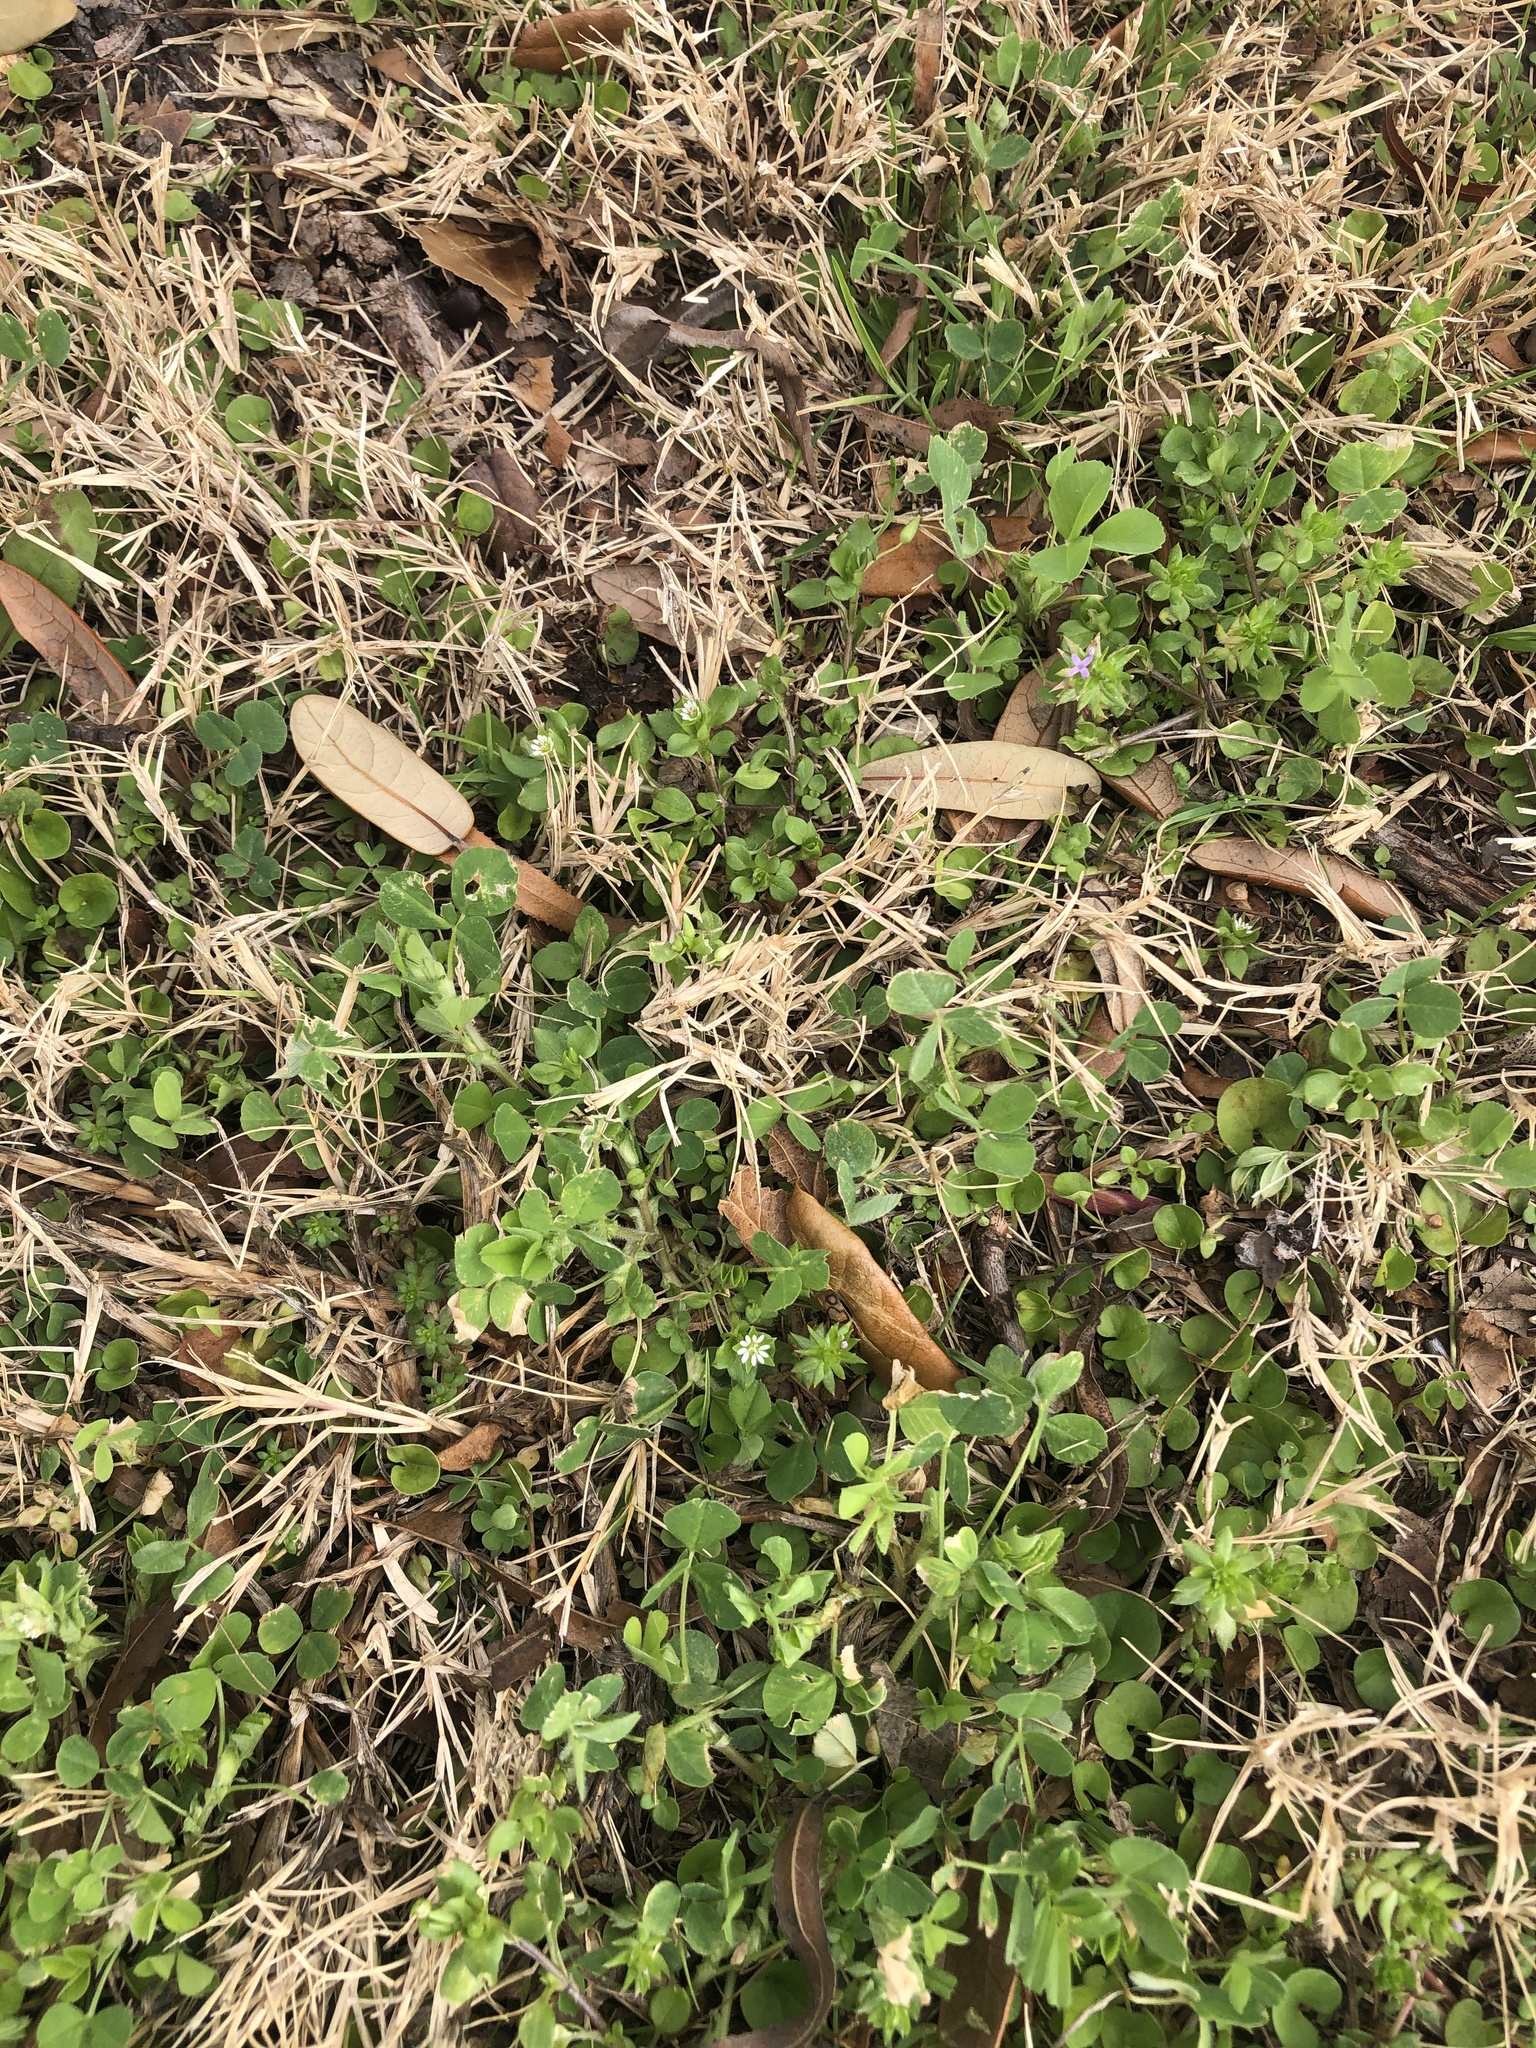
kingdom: Plantae
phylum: Tracheophyta
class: Magnoliopsida
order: Caryophyllales
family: Caryophyllaceae
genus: Stellaria
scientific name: Stellaria media
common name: Common chickweed
